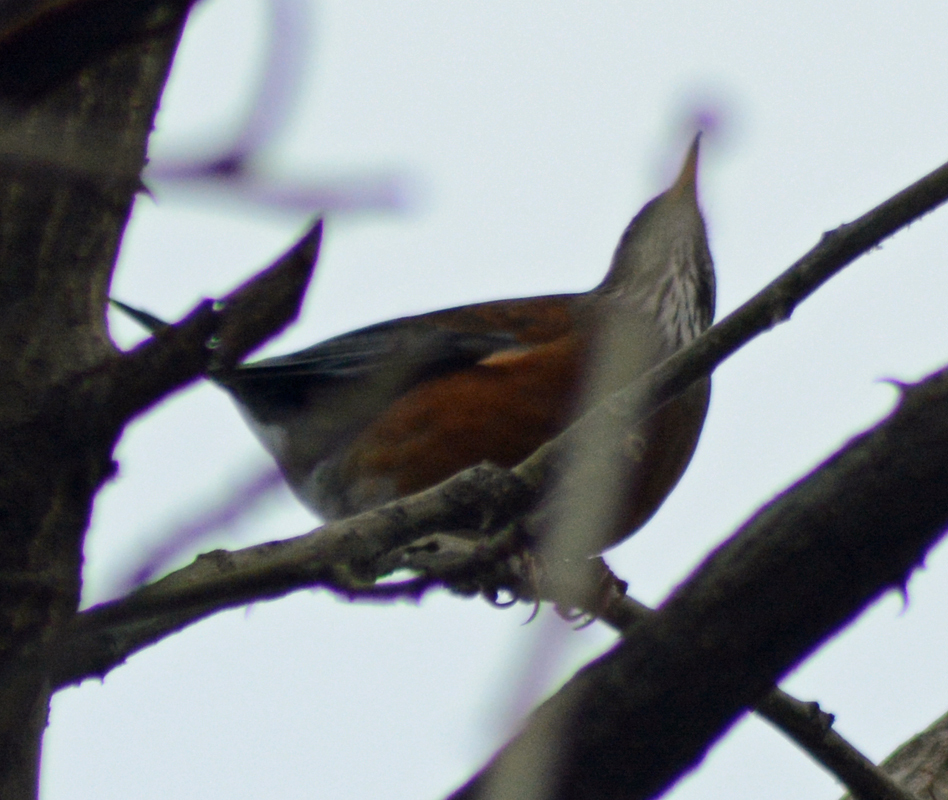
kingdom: Animalia
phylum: Chordata
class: Aves
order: Passeriformes
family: Turdidae
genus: Turdus
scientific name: Turdus rufopalliatus
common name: Rufous-backed robin
